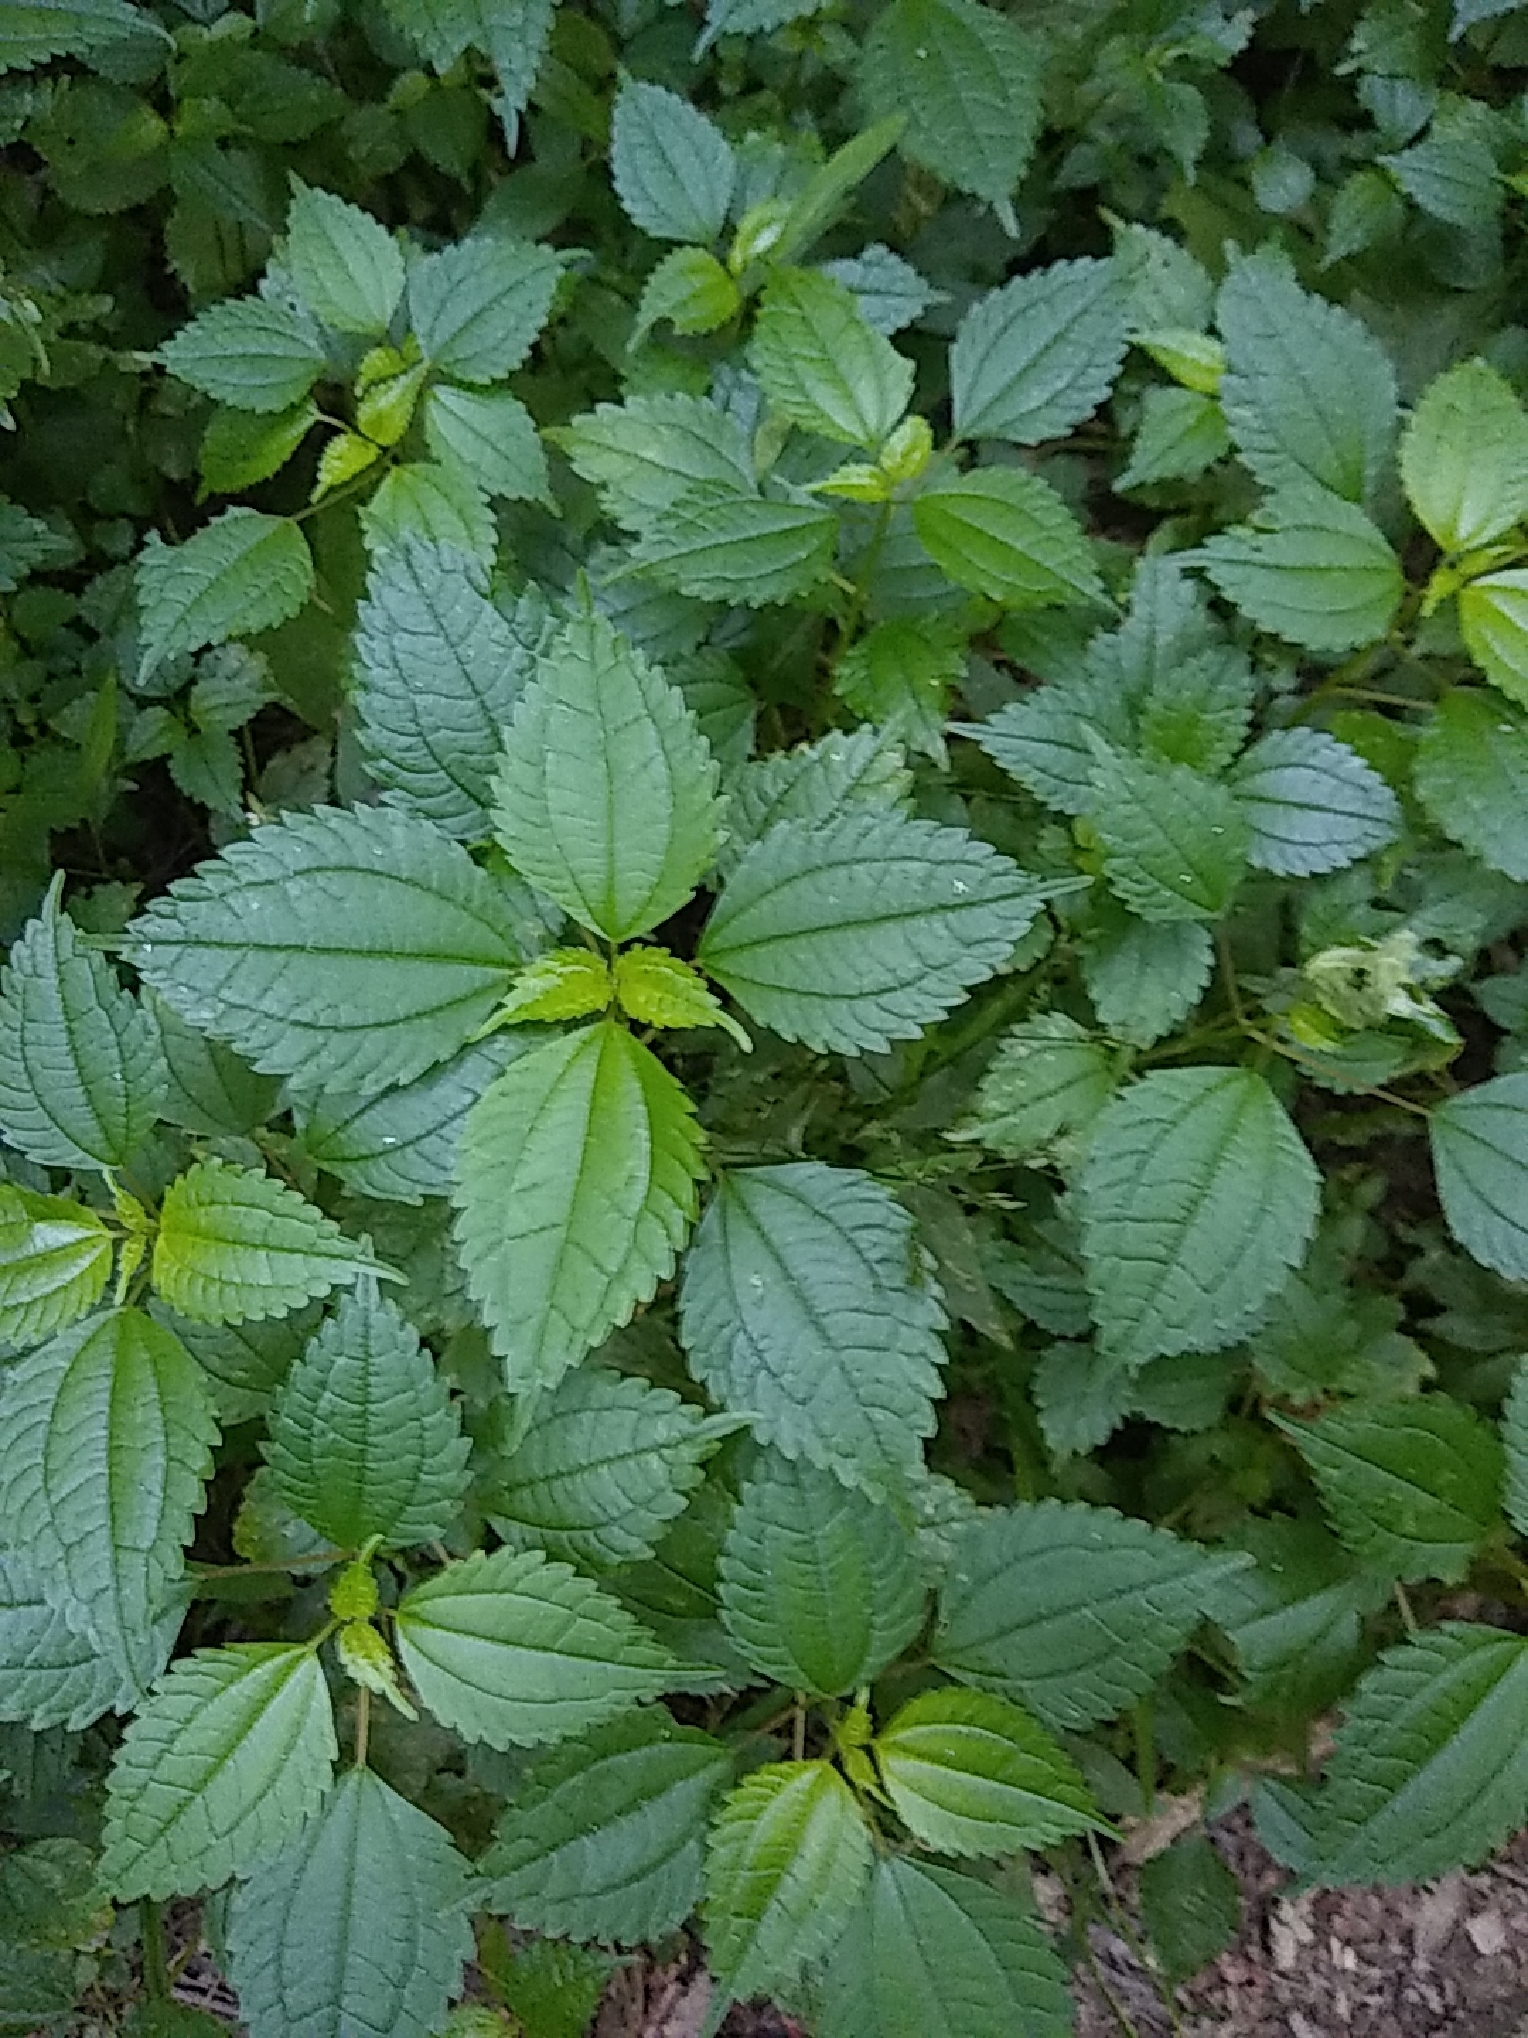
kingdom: Plantae
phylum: Tracheophyta
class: Magnoliopsida
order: Rosales
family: Urticaceae
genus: Pilea
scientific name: Pilea pumila
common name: Clearweed
